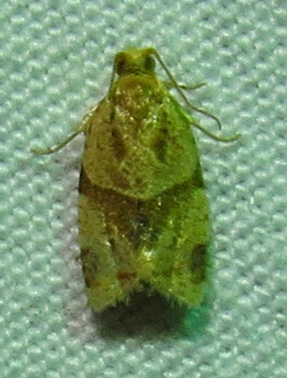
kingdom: Animalia
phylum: Arthropoda
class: Insecta
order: Lepidoptera
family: Tortricidae
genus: Clepsis
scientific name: Clepsis peritana
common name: Garden tortrix
